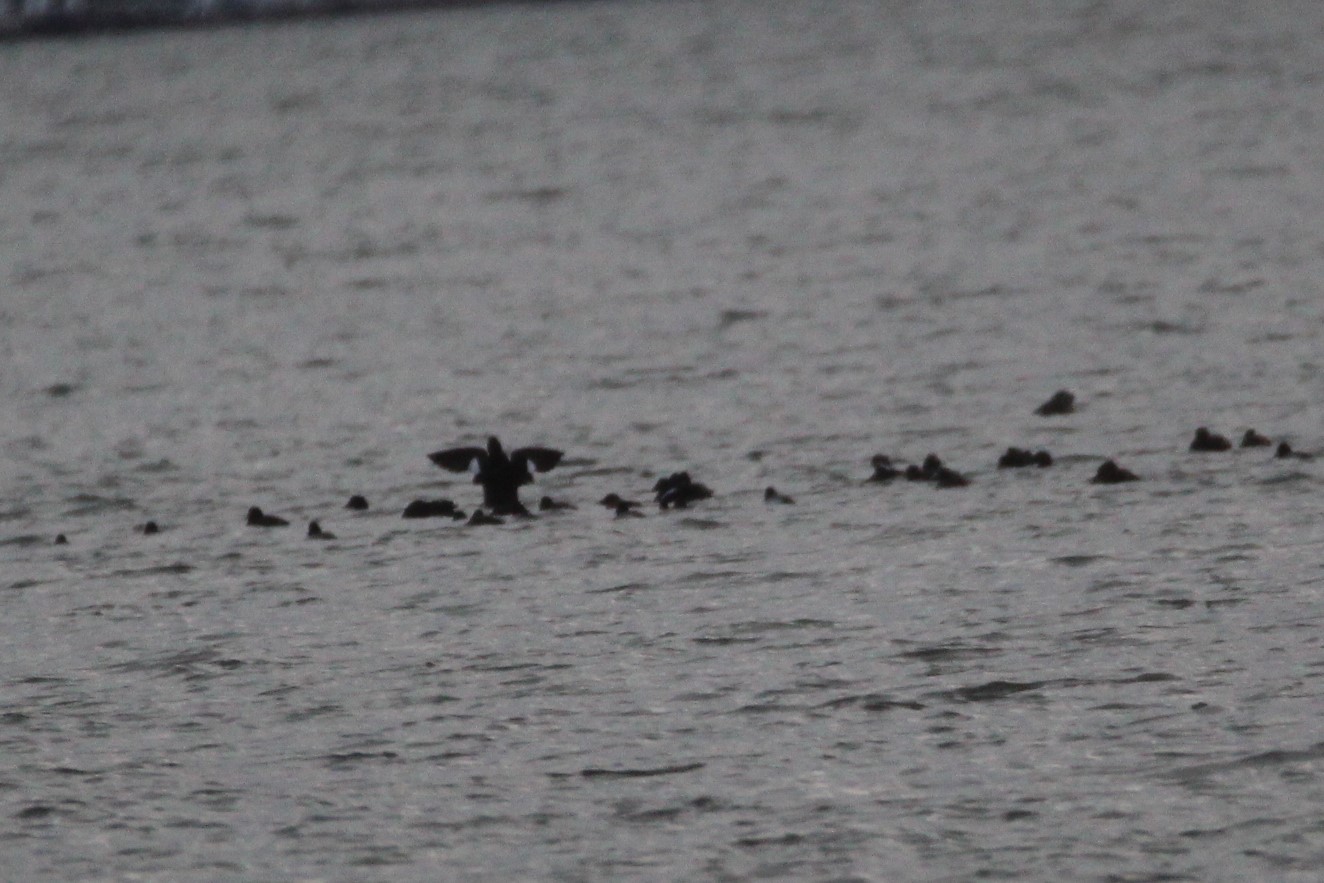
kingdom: Animalia
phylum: Chordata
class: Aves
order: Anseriformes
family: Anatidae
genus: Melanitta
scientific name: Melanitta deglandi
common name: White-winged scoter
